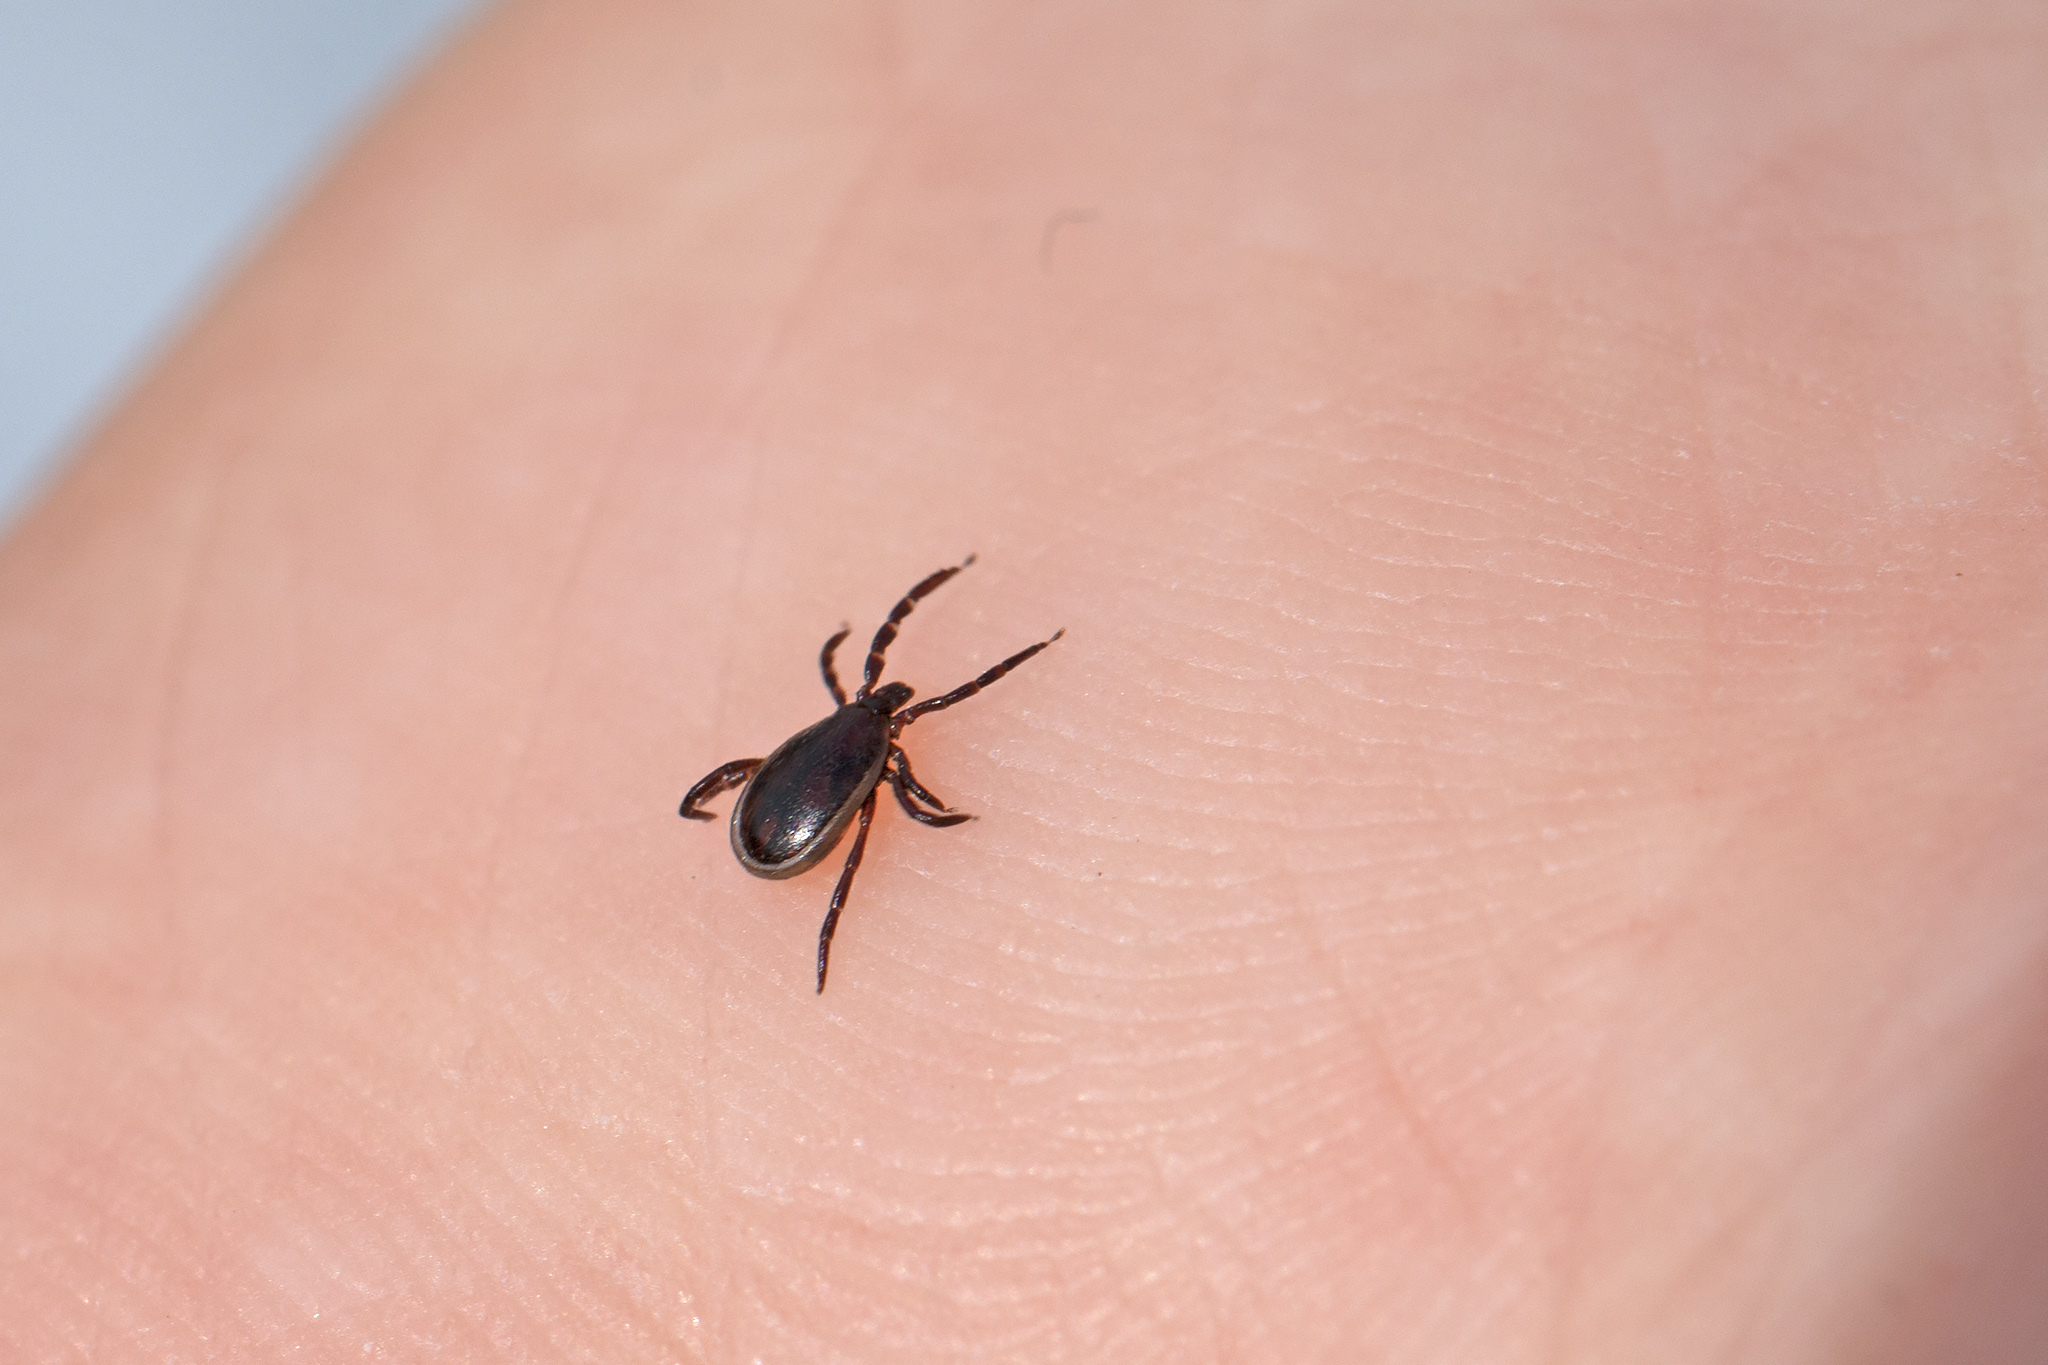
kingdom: Animalia
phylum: Arthropoda
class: Arachnida
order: Ixodida
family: Ixodidae
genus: Ixodes
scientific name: Ixodes ricinus
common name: Castor bean tick
